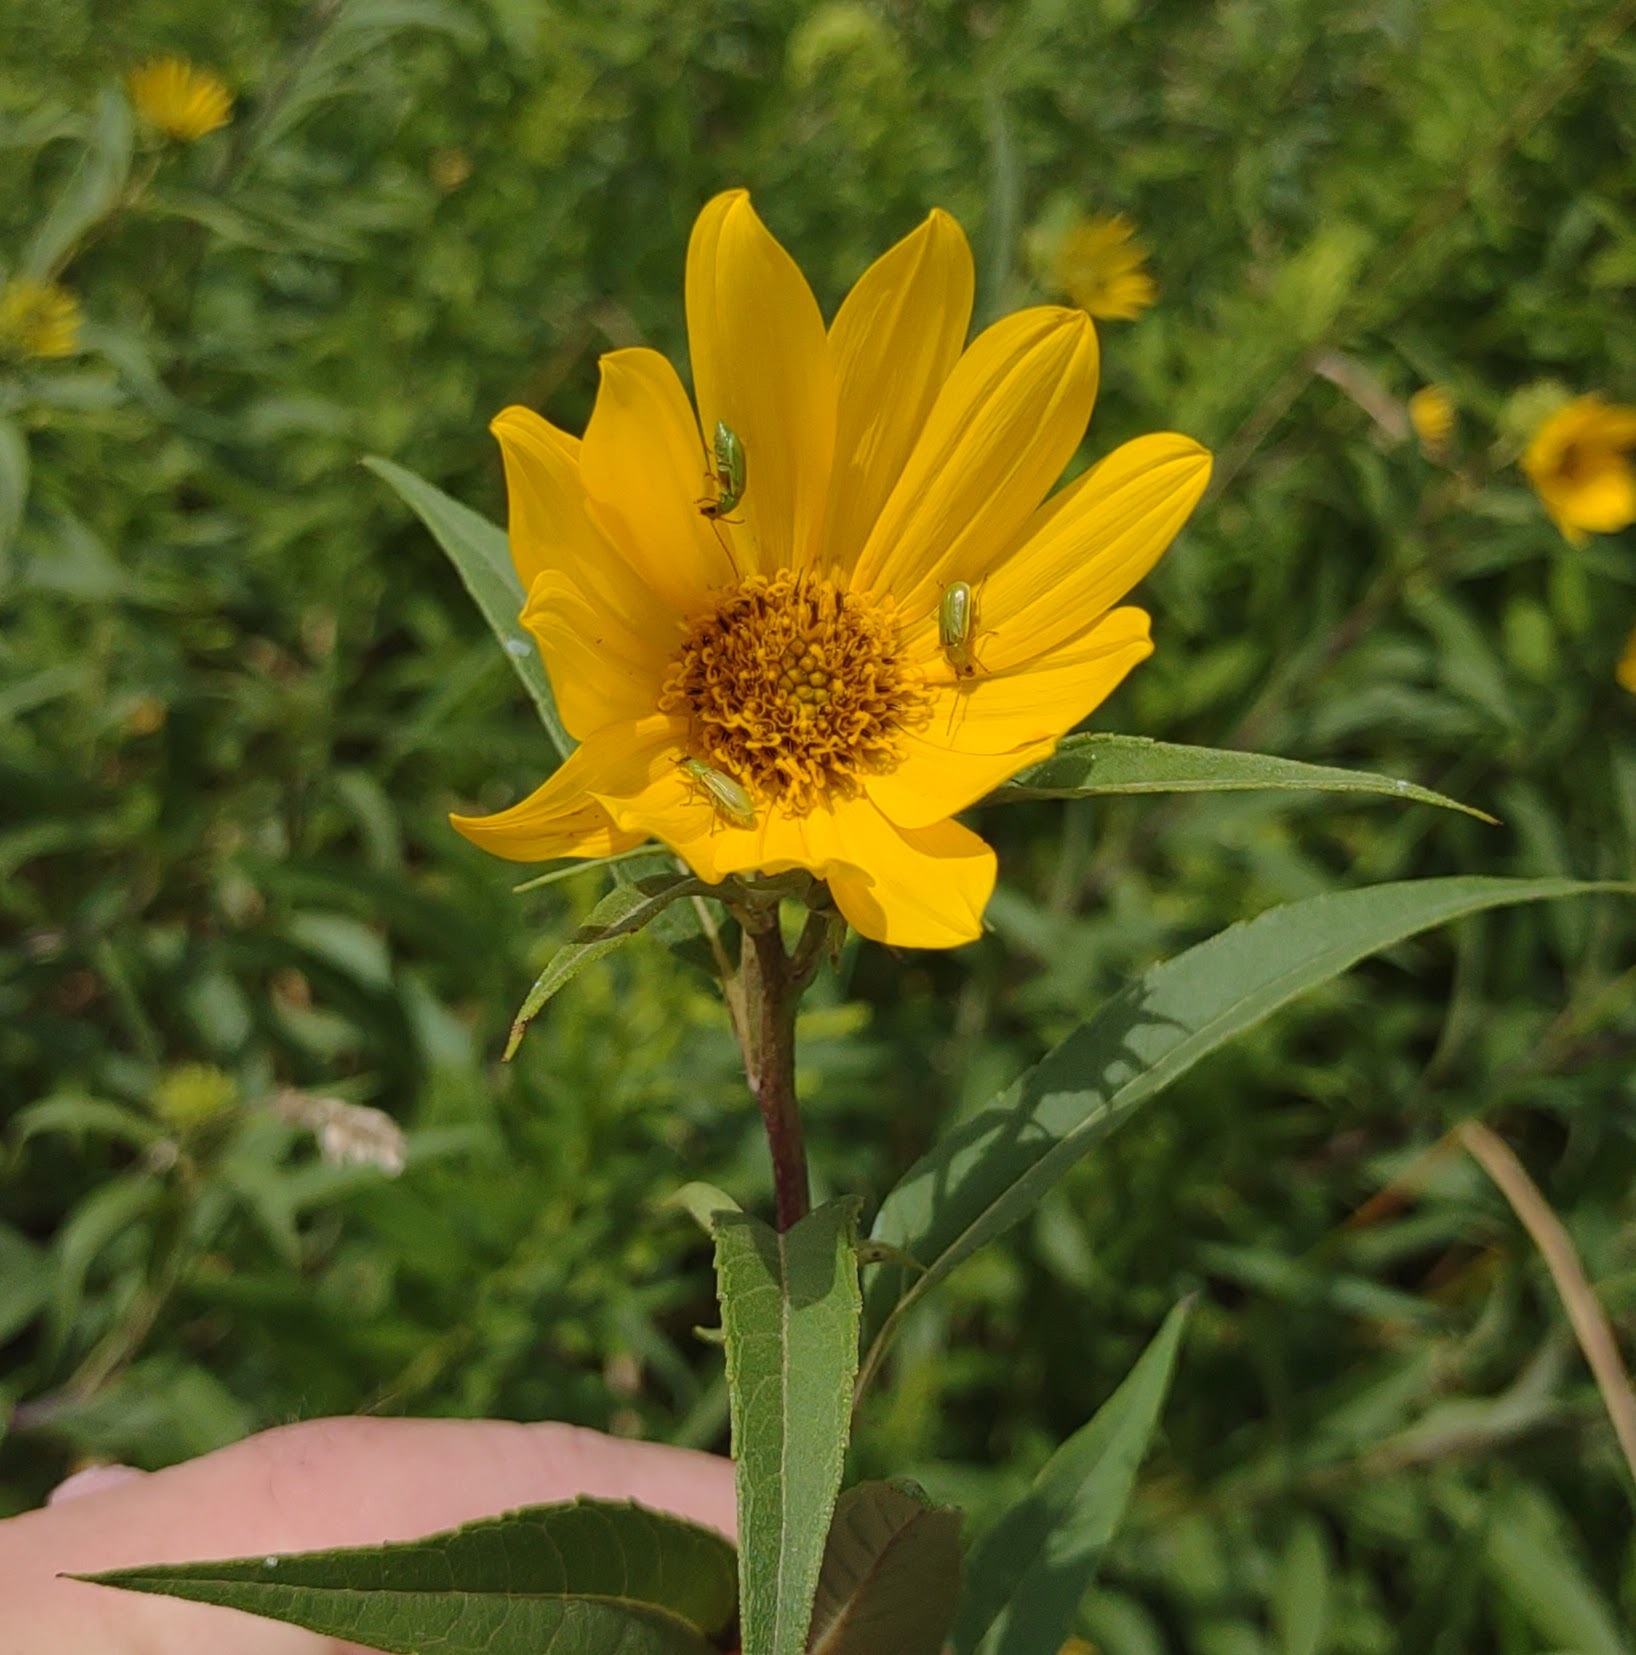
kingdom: Animalia
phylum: Arthropoda
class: Insecta
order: Coleoptera
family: Chrysomelidae
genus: Diabrotica
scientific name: Diabrotica barberi
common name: Northern corn rootworm
